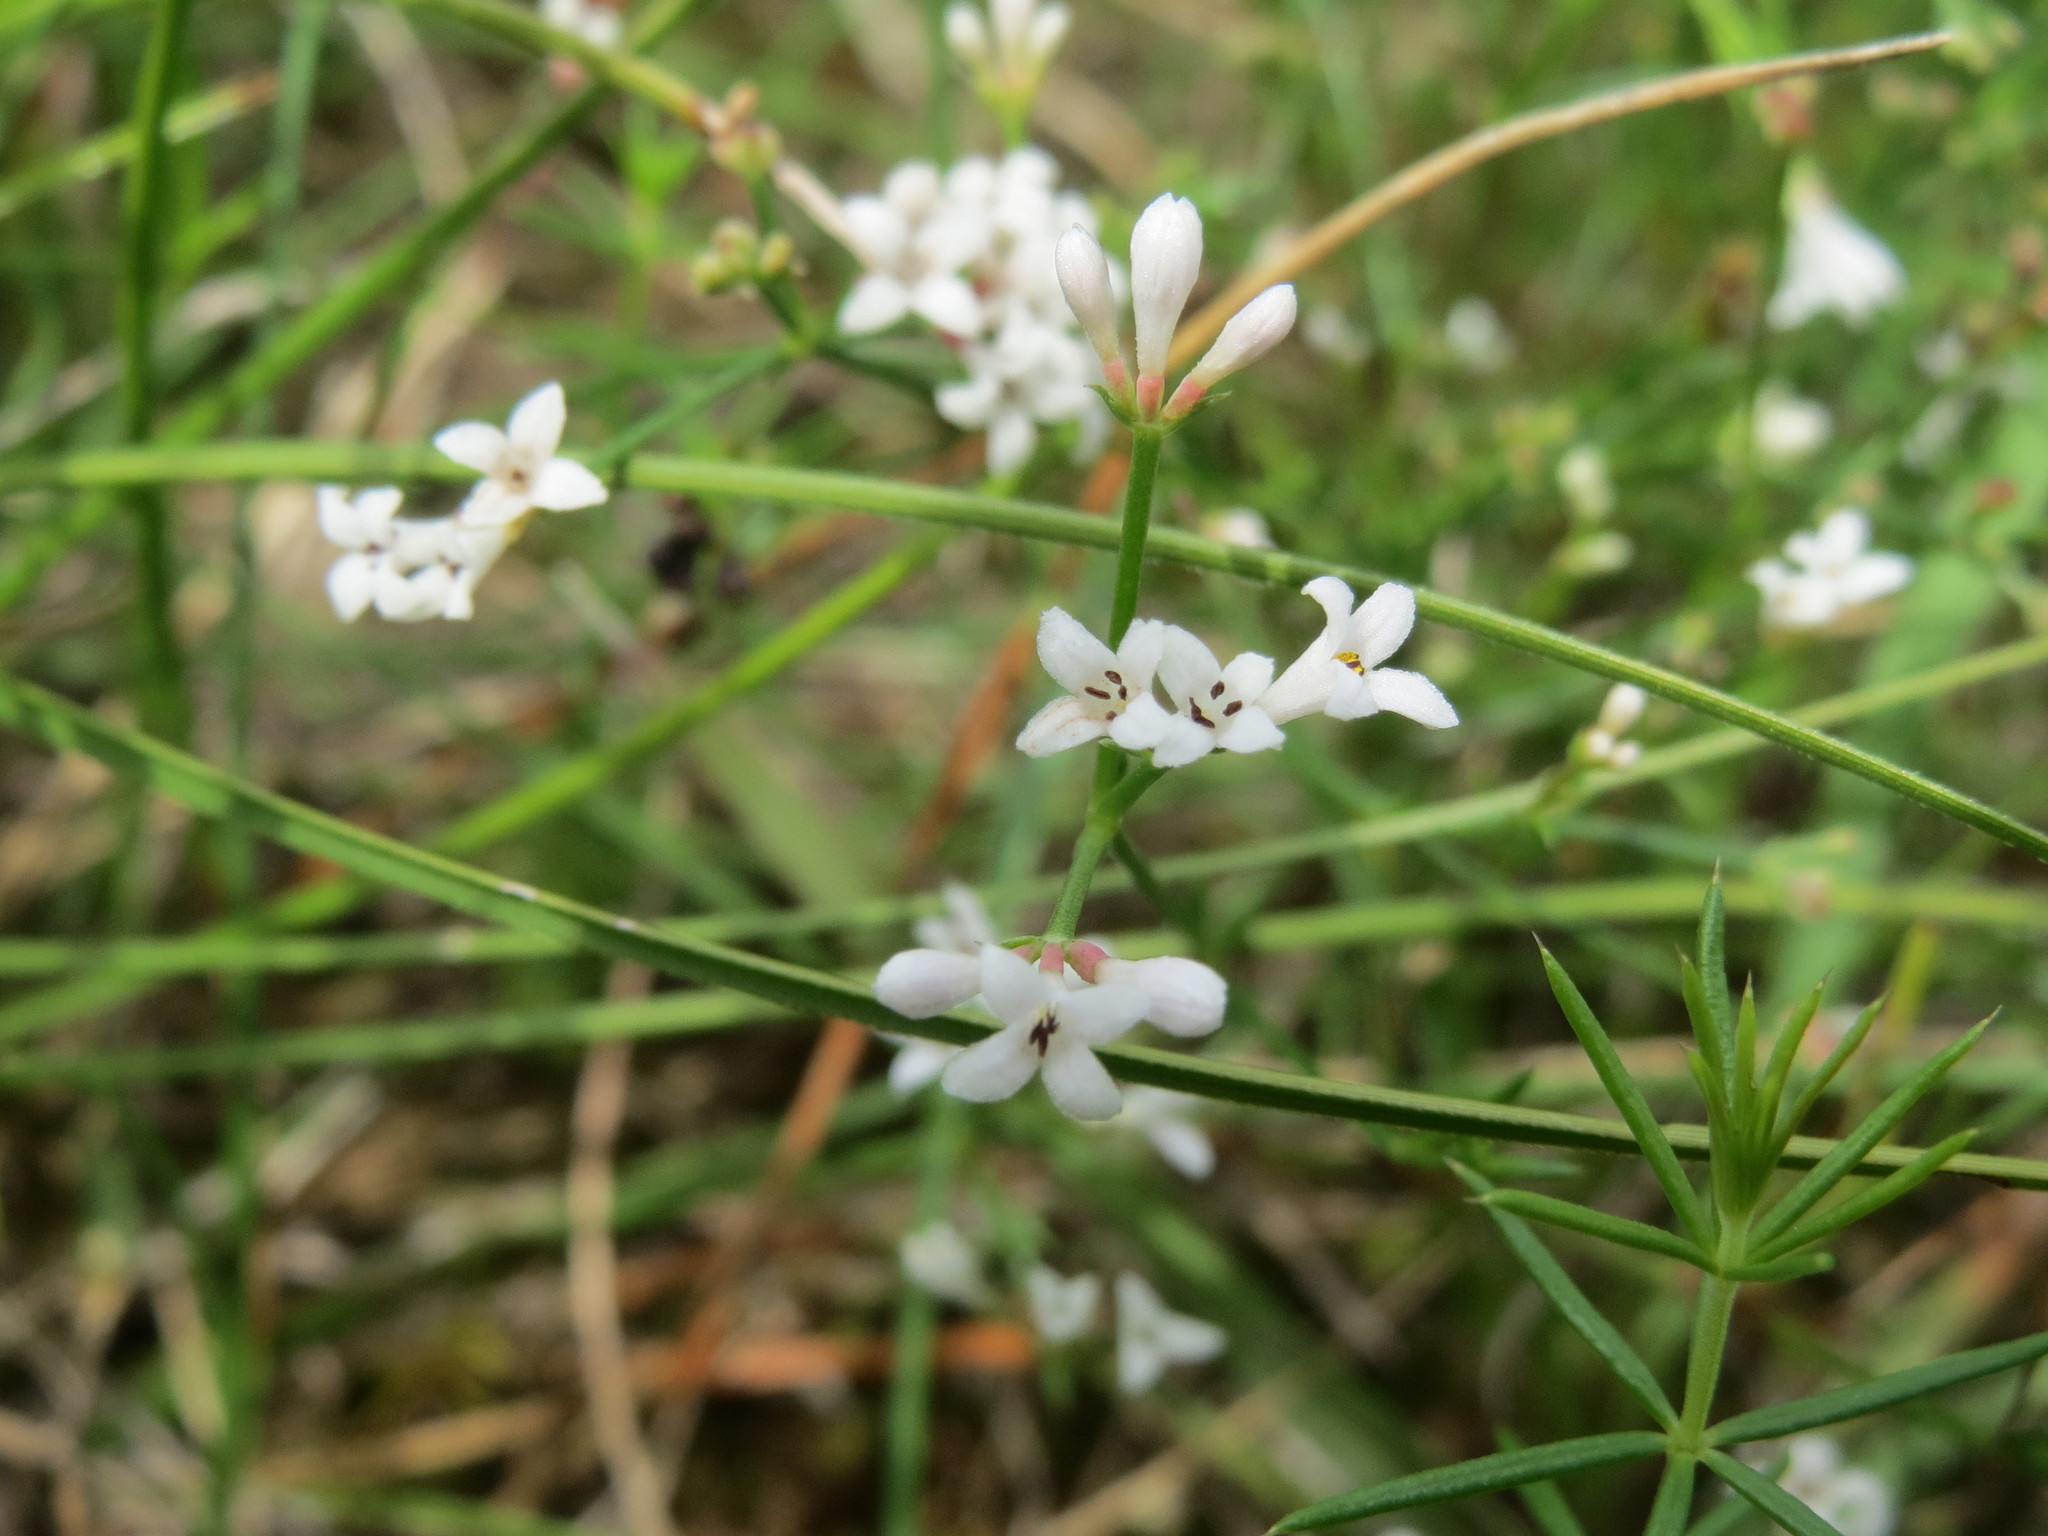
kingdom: Plantae
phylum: Tracheophyta
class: Magnoliopsida
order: Gentianales
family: Rubiaceae
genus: Cynanchica
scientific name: Cynanchica pyrenaica
